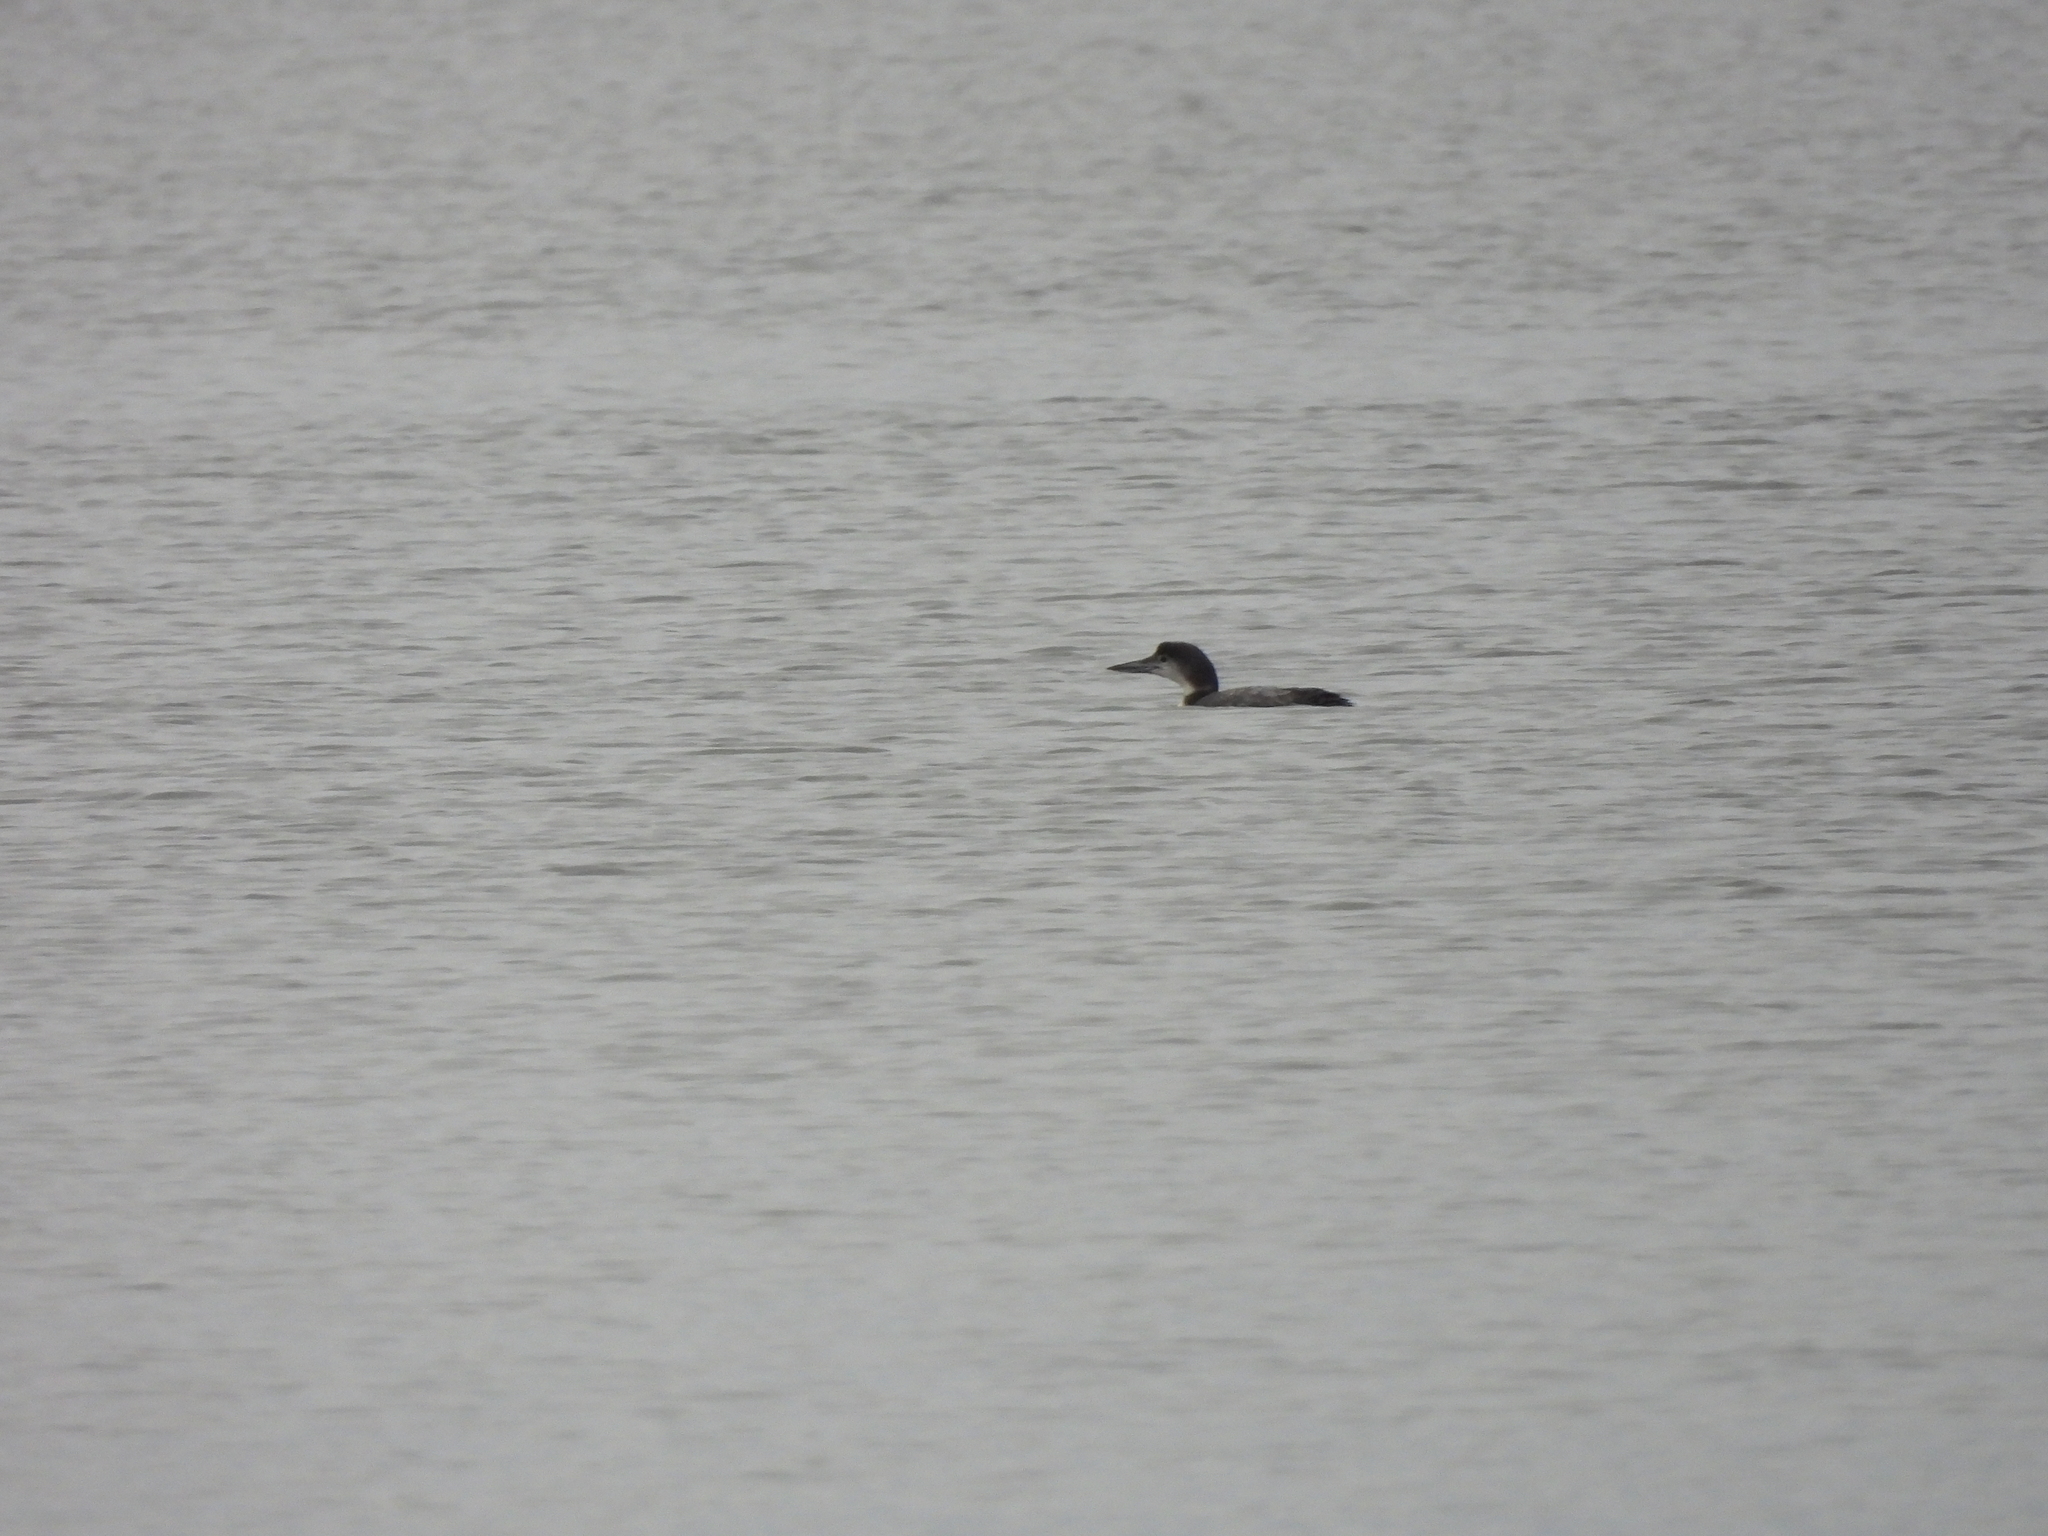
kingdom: Animalia
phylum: Chordata
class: Aves
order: Gaviiformes
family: Gaviidae
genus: Gavia
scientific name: Gavia immer
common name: Common loon
